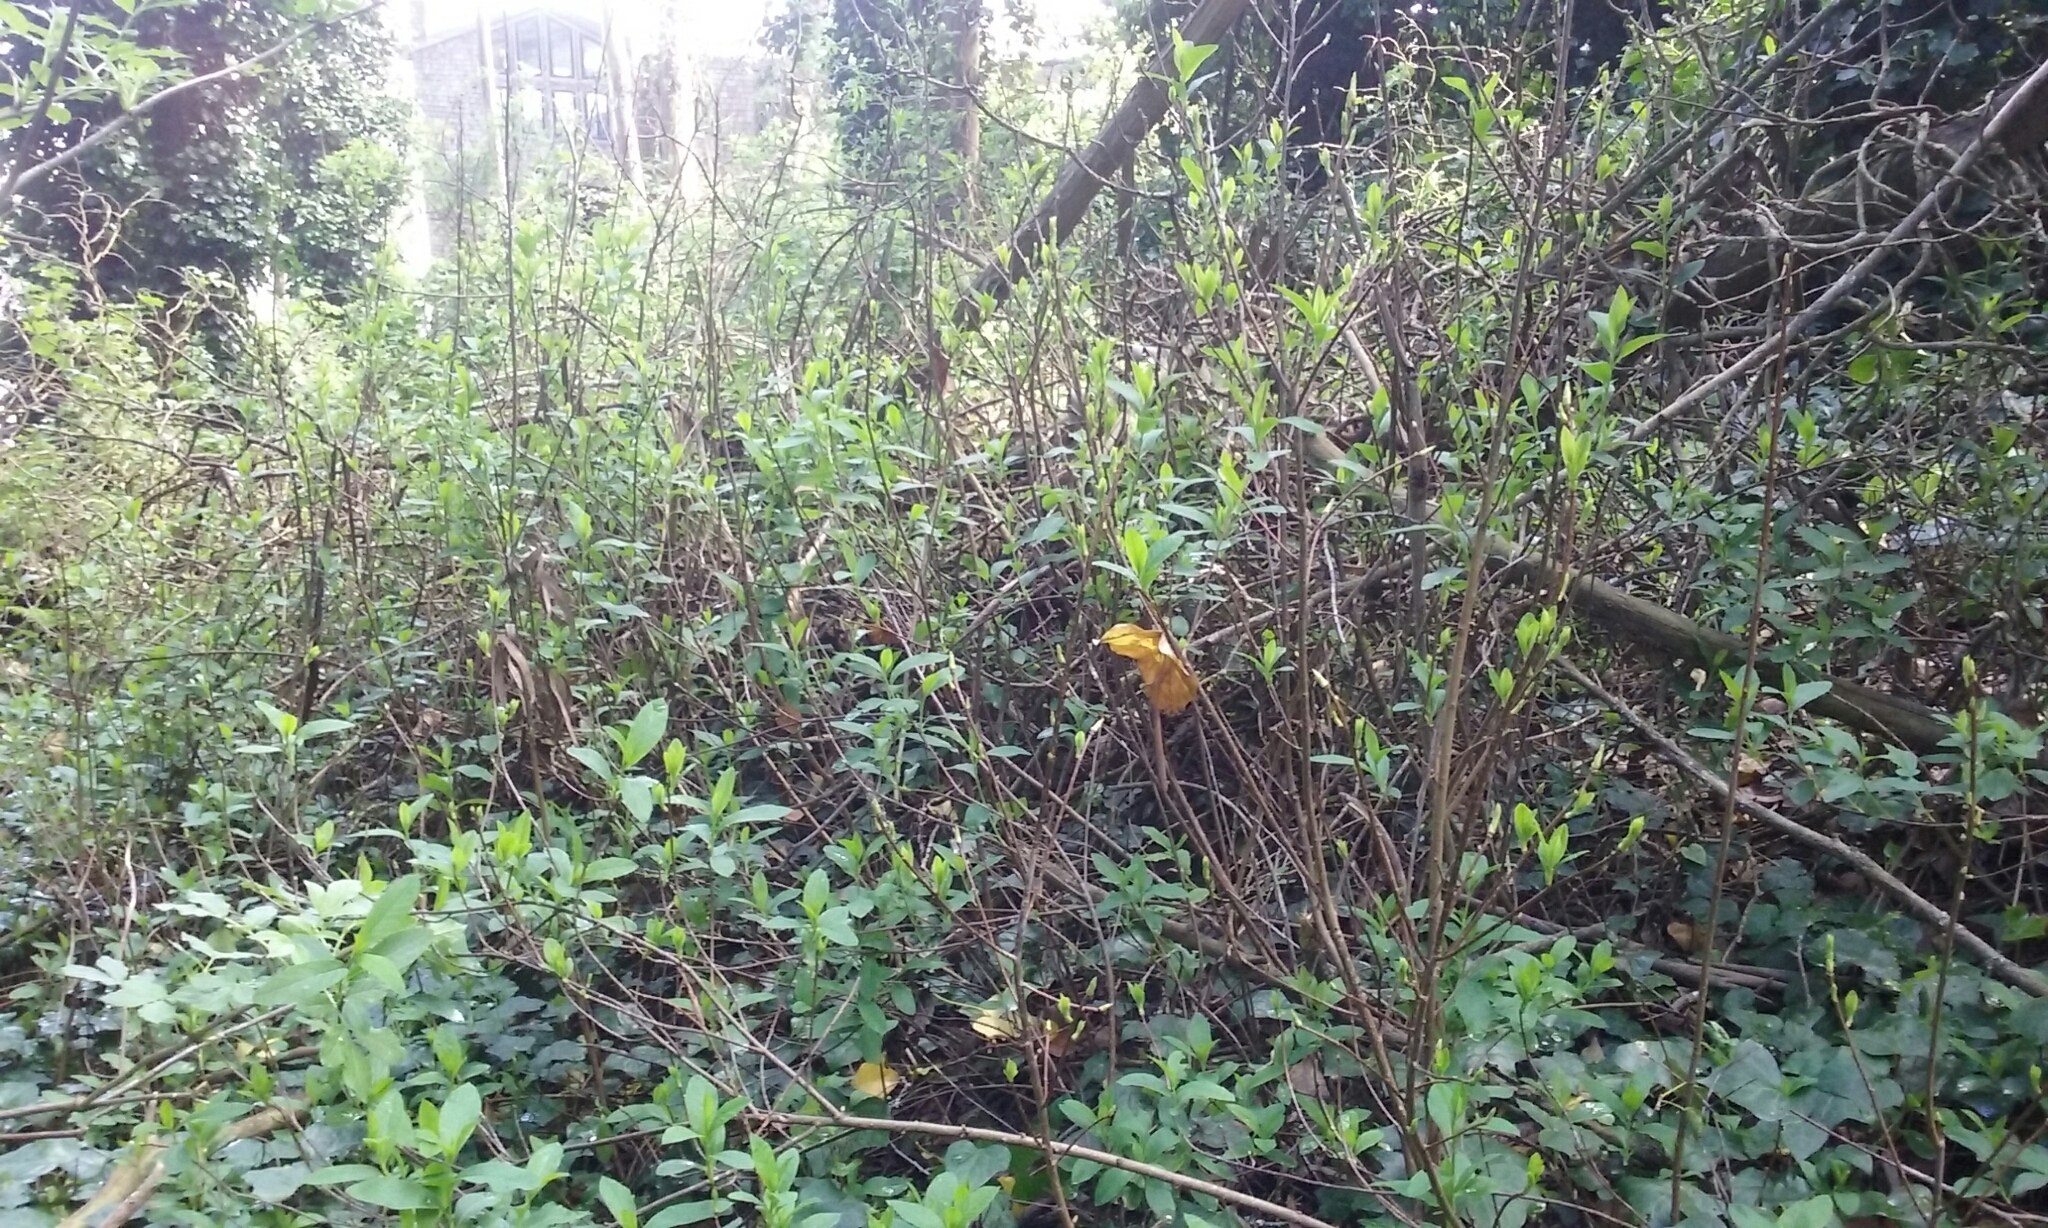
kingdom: Plantae
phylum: Tracheophyta
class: Magnoliopsida
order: Rosales
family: Rosaceae
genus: Oemleria
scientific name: Oemleria cerasiformis
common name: Osoberry
